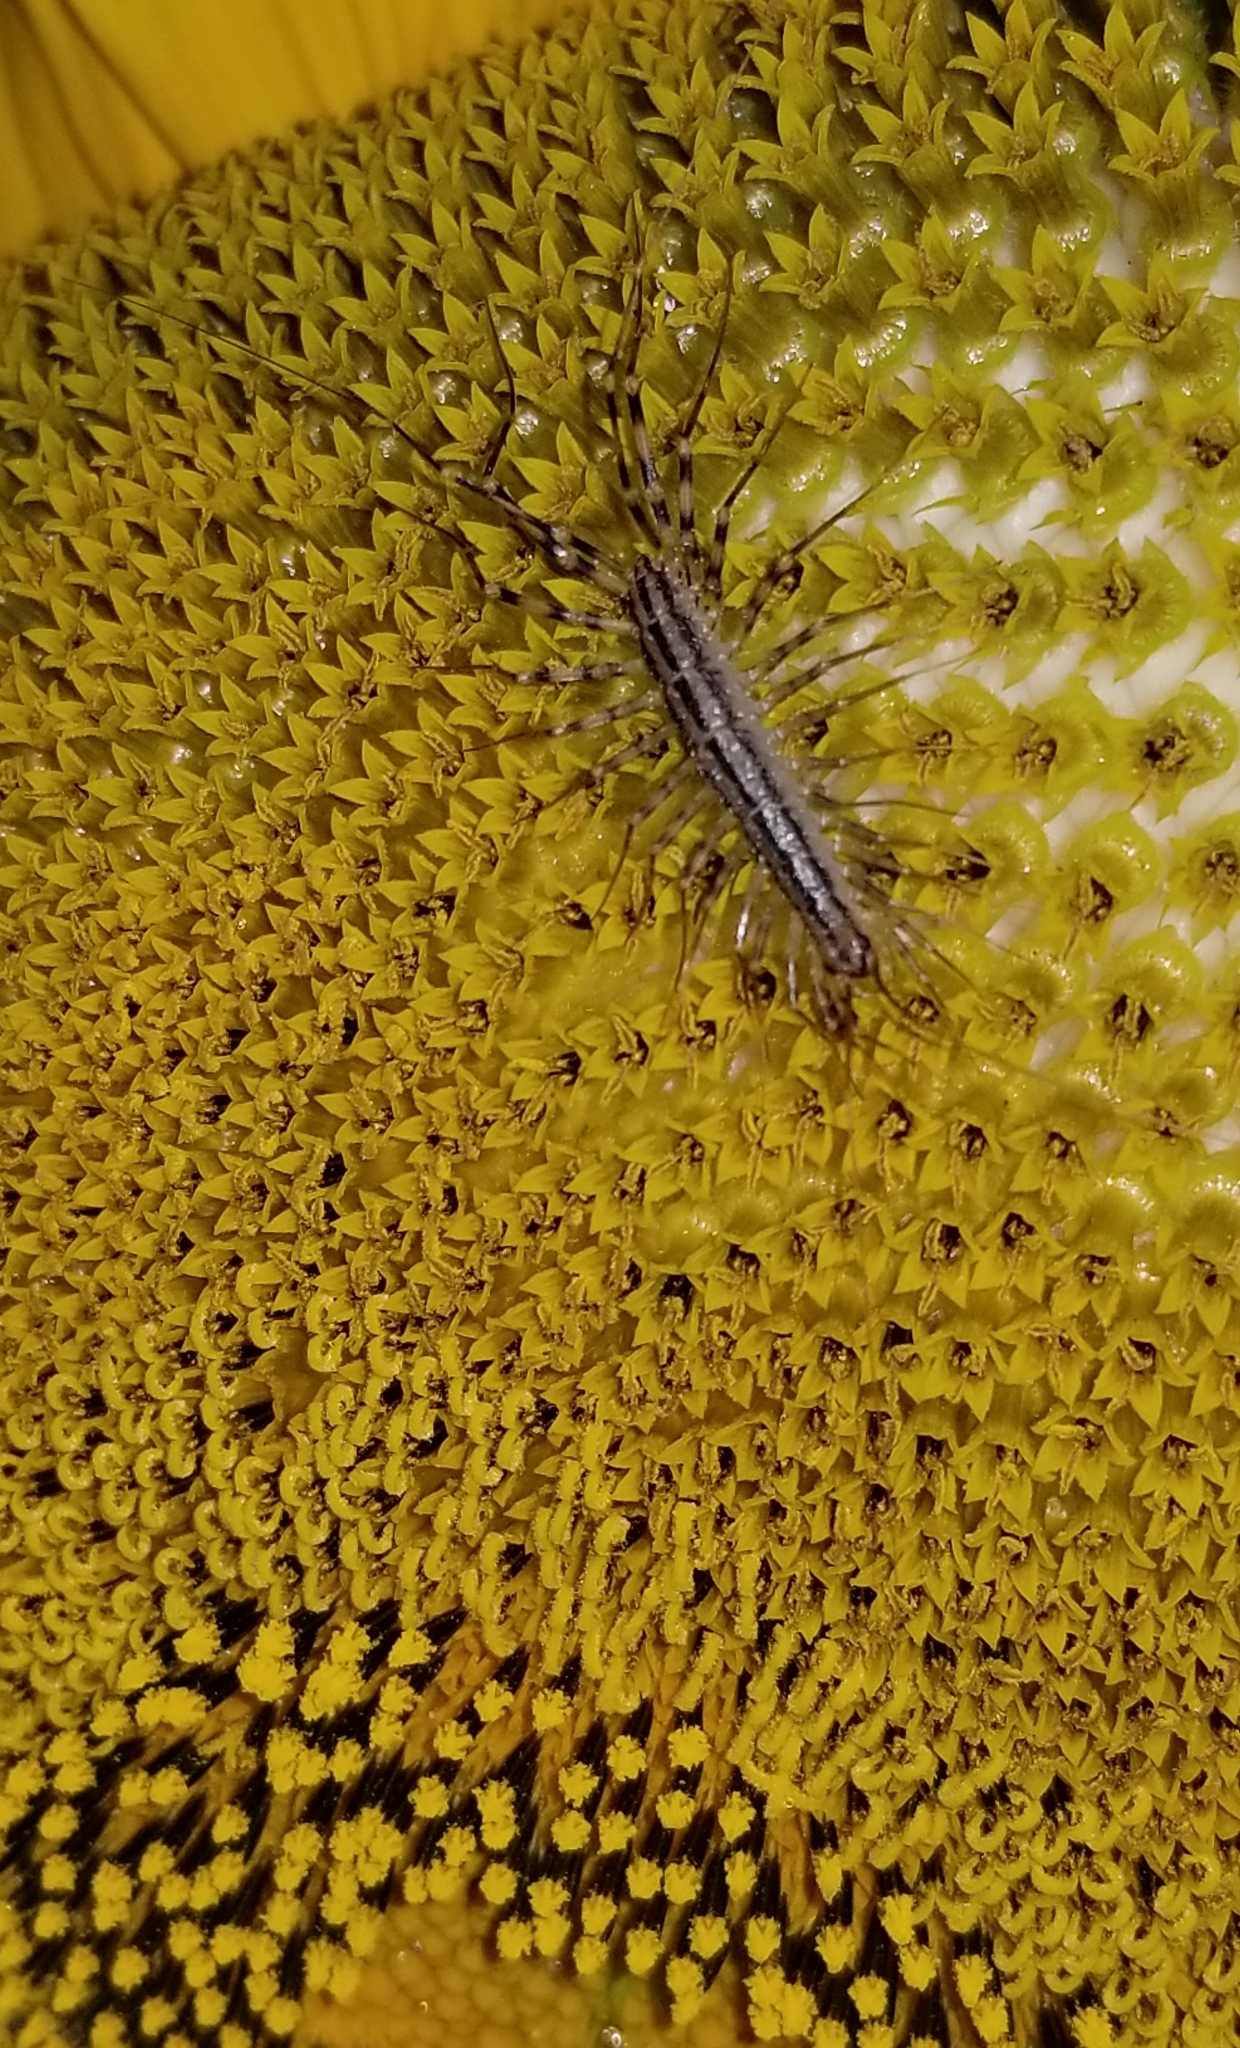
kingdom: Animalia
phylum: Arthropoda
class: Chilopoda
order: Scutigeromorpha
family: Scutigeridae
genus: Scutigera
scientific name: Scutigera coleoptrata
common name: House centipede
